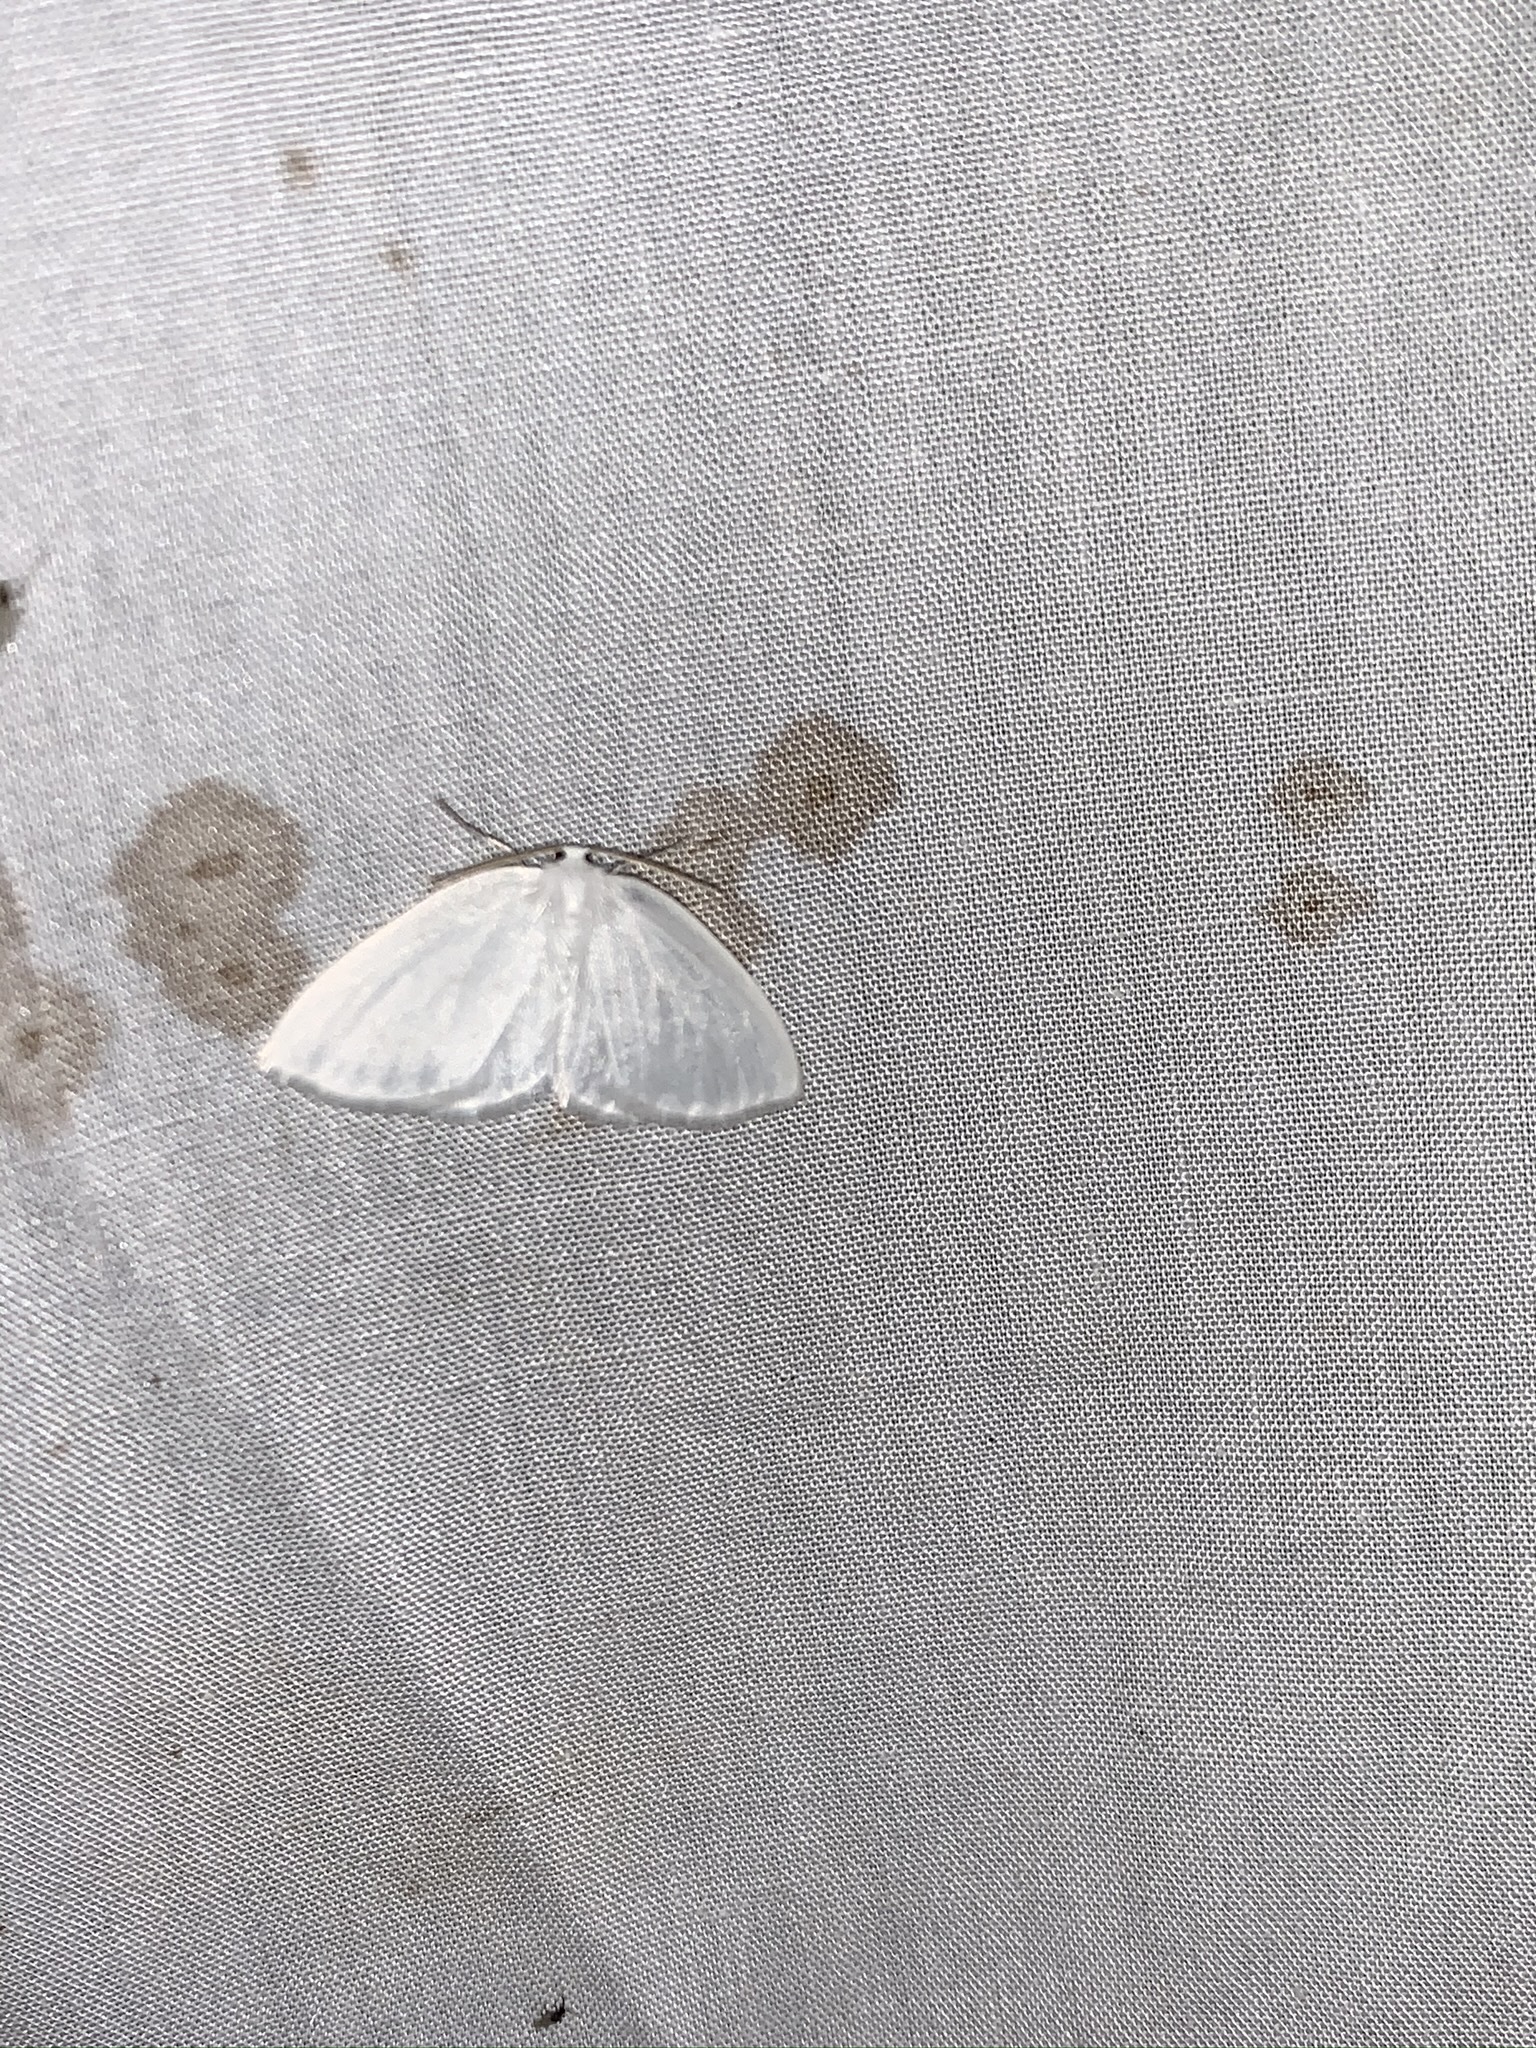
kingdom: Animalia
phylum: Arthropoda
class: Insecta
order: Lepidoptera
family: Geometridae
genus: Lomographa
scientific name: Lomographa vestaliata
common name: White spring moth
